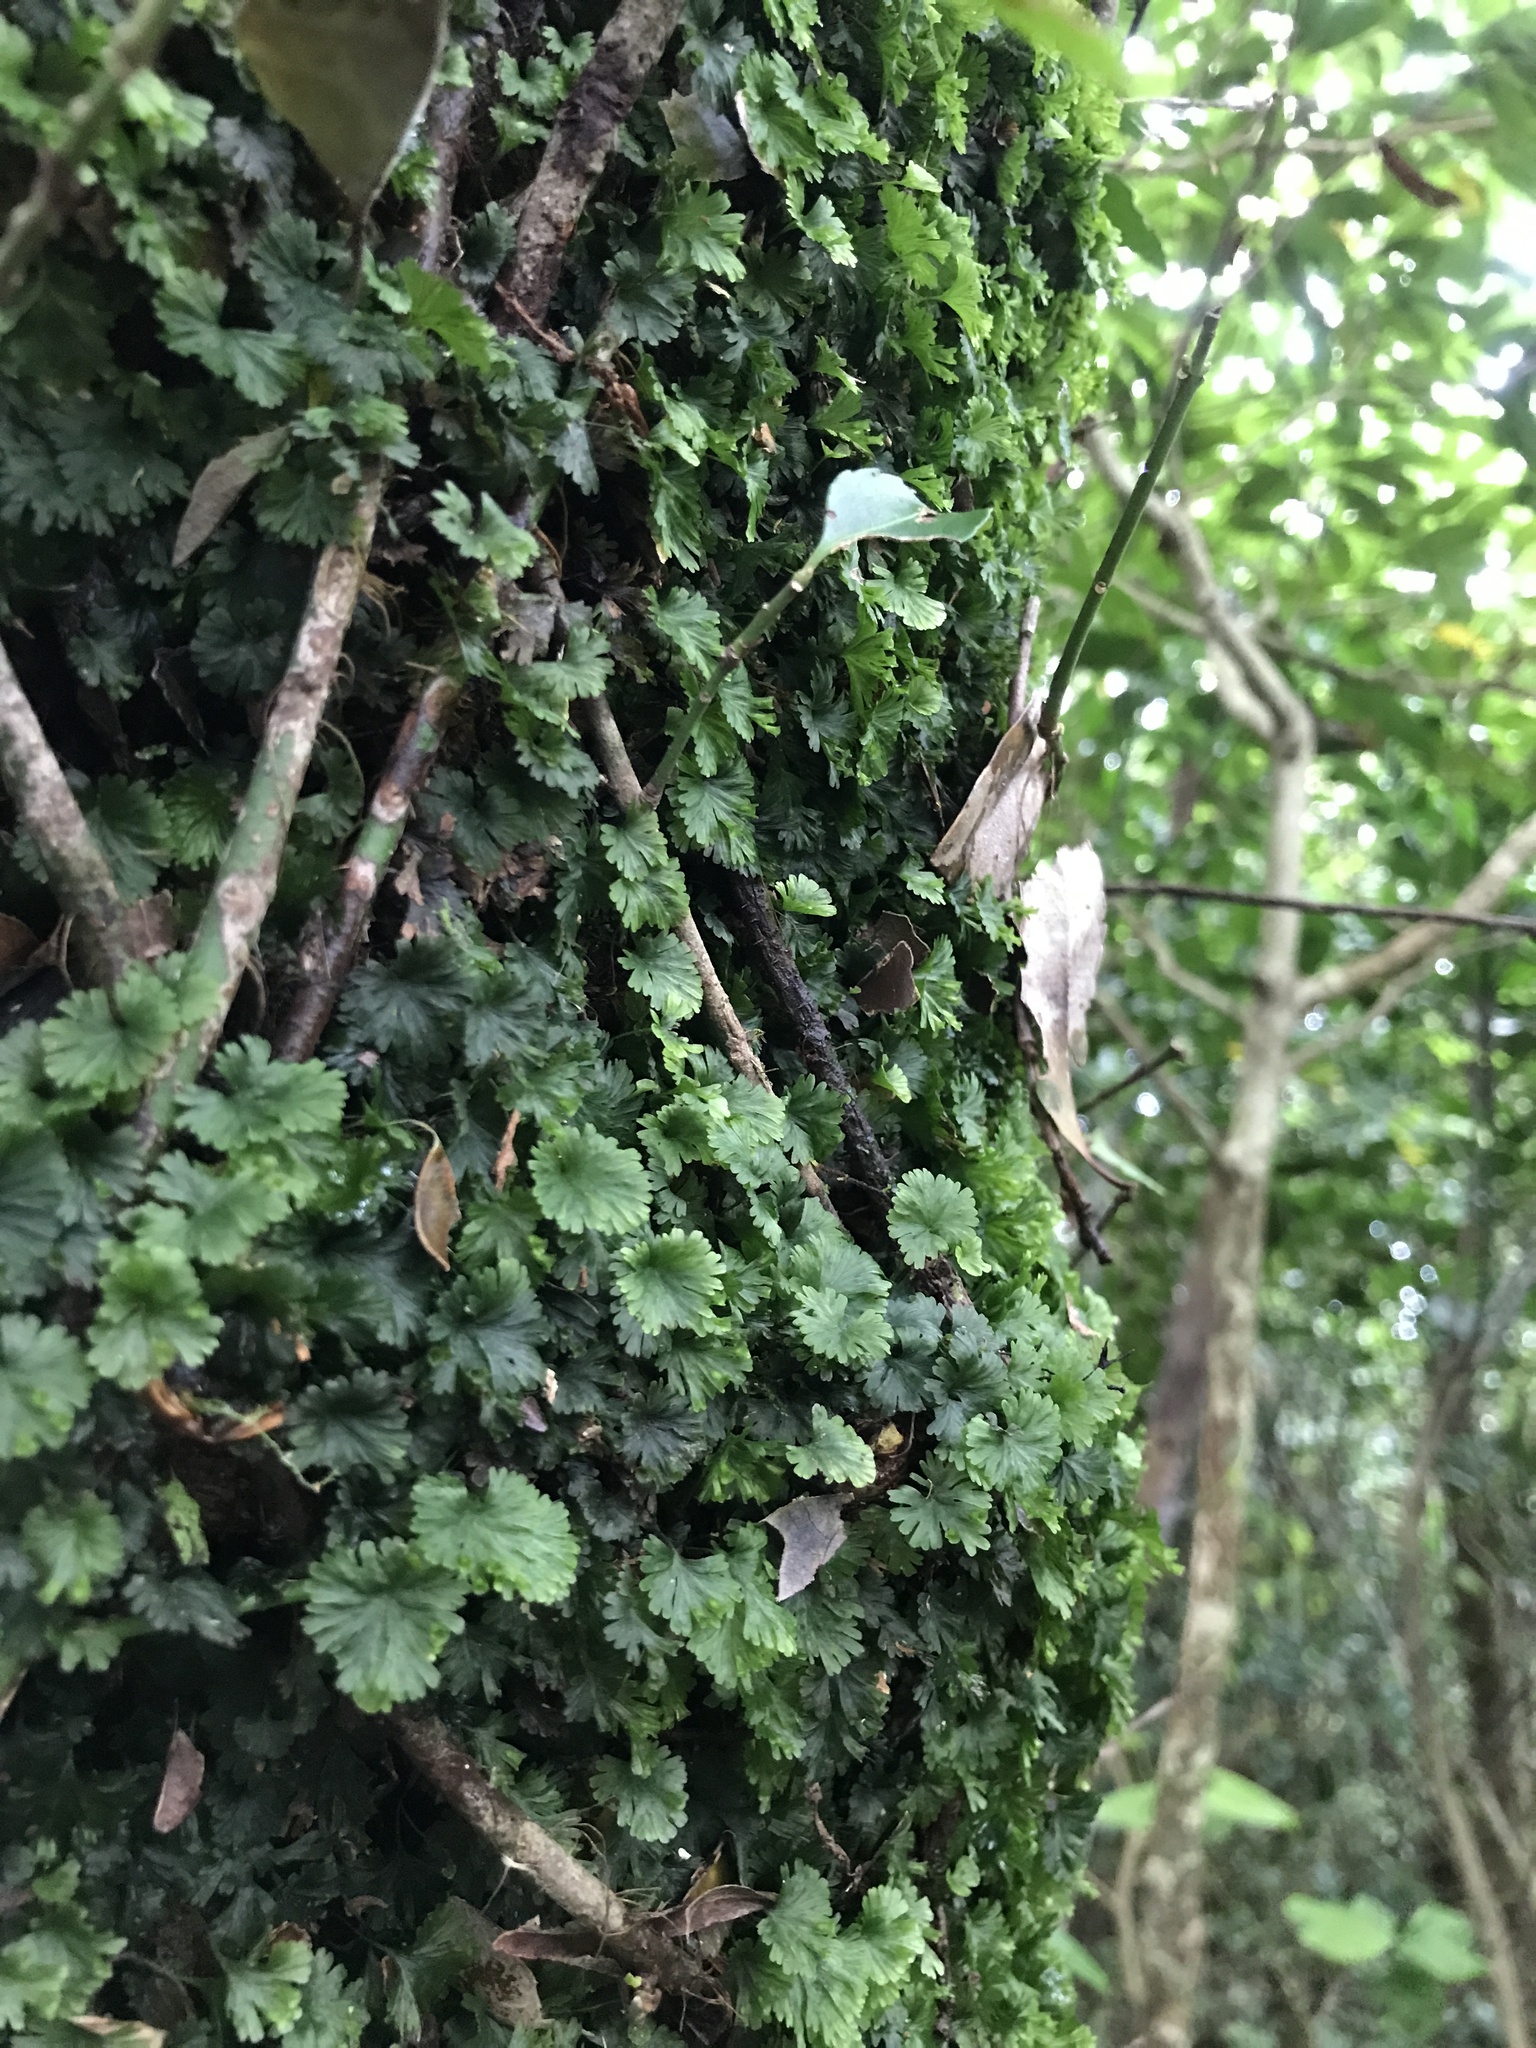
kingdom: Plantae
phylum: Tracheophyta
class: Polypodiopsida
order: Hymenophyllales
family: Hymenophyllaceae
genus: Crepidomanes
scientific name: Crepidomanes parvulum
